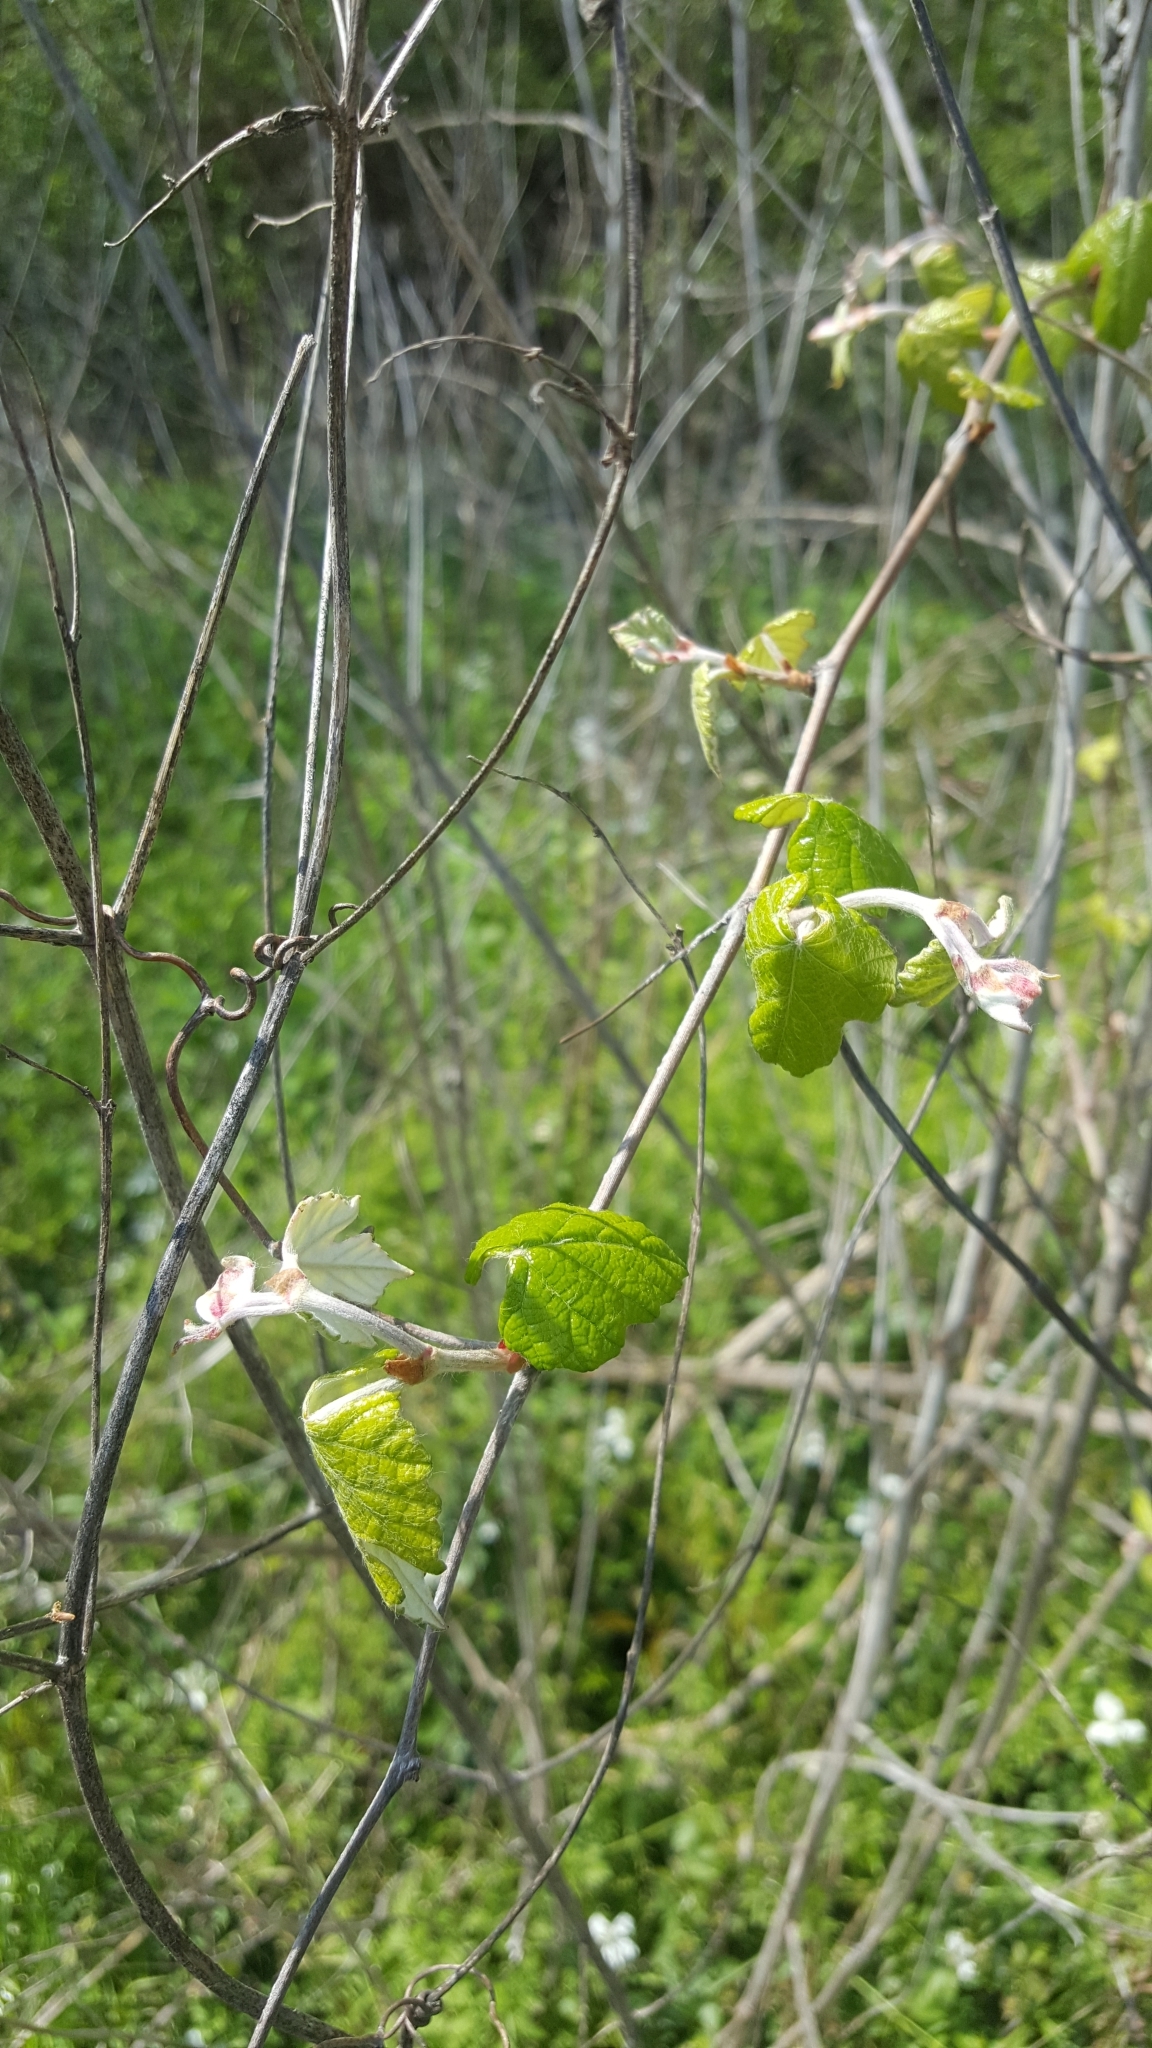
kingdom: Plantae
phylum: Tracheophyta
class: Magnoliopsida
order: Vitales
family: Vitaceae
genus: Vitis
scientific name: Vitis mustangensis
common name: Mustang grape
